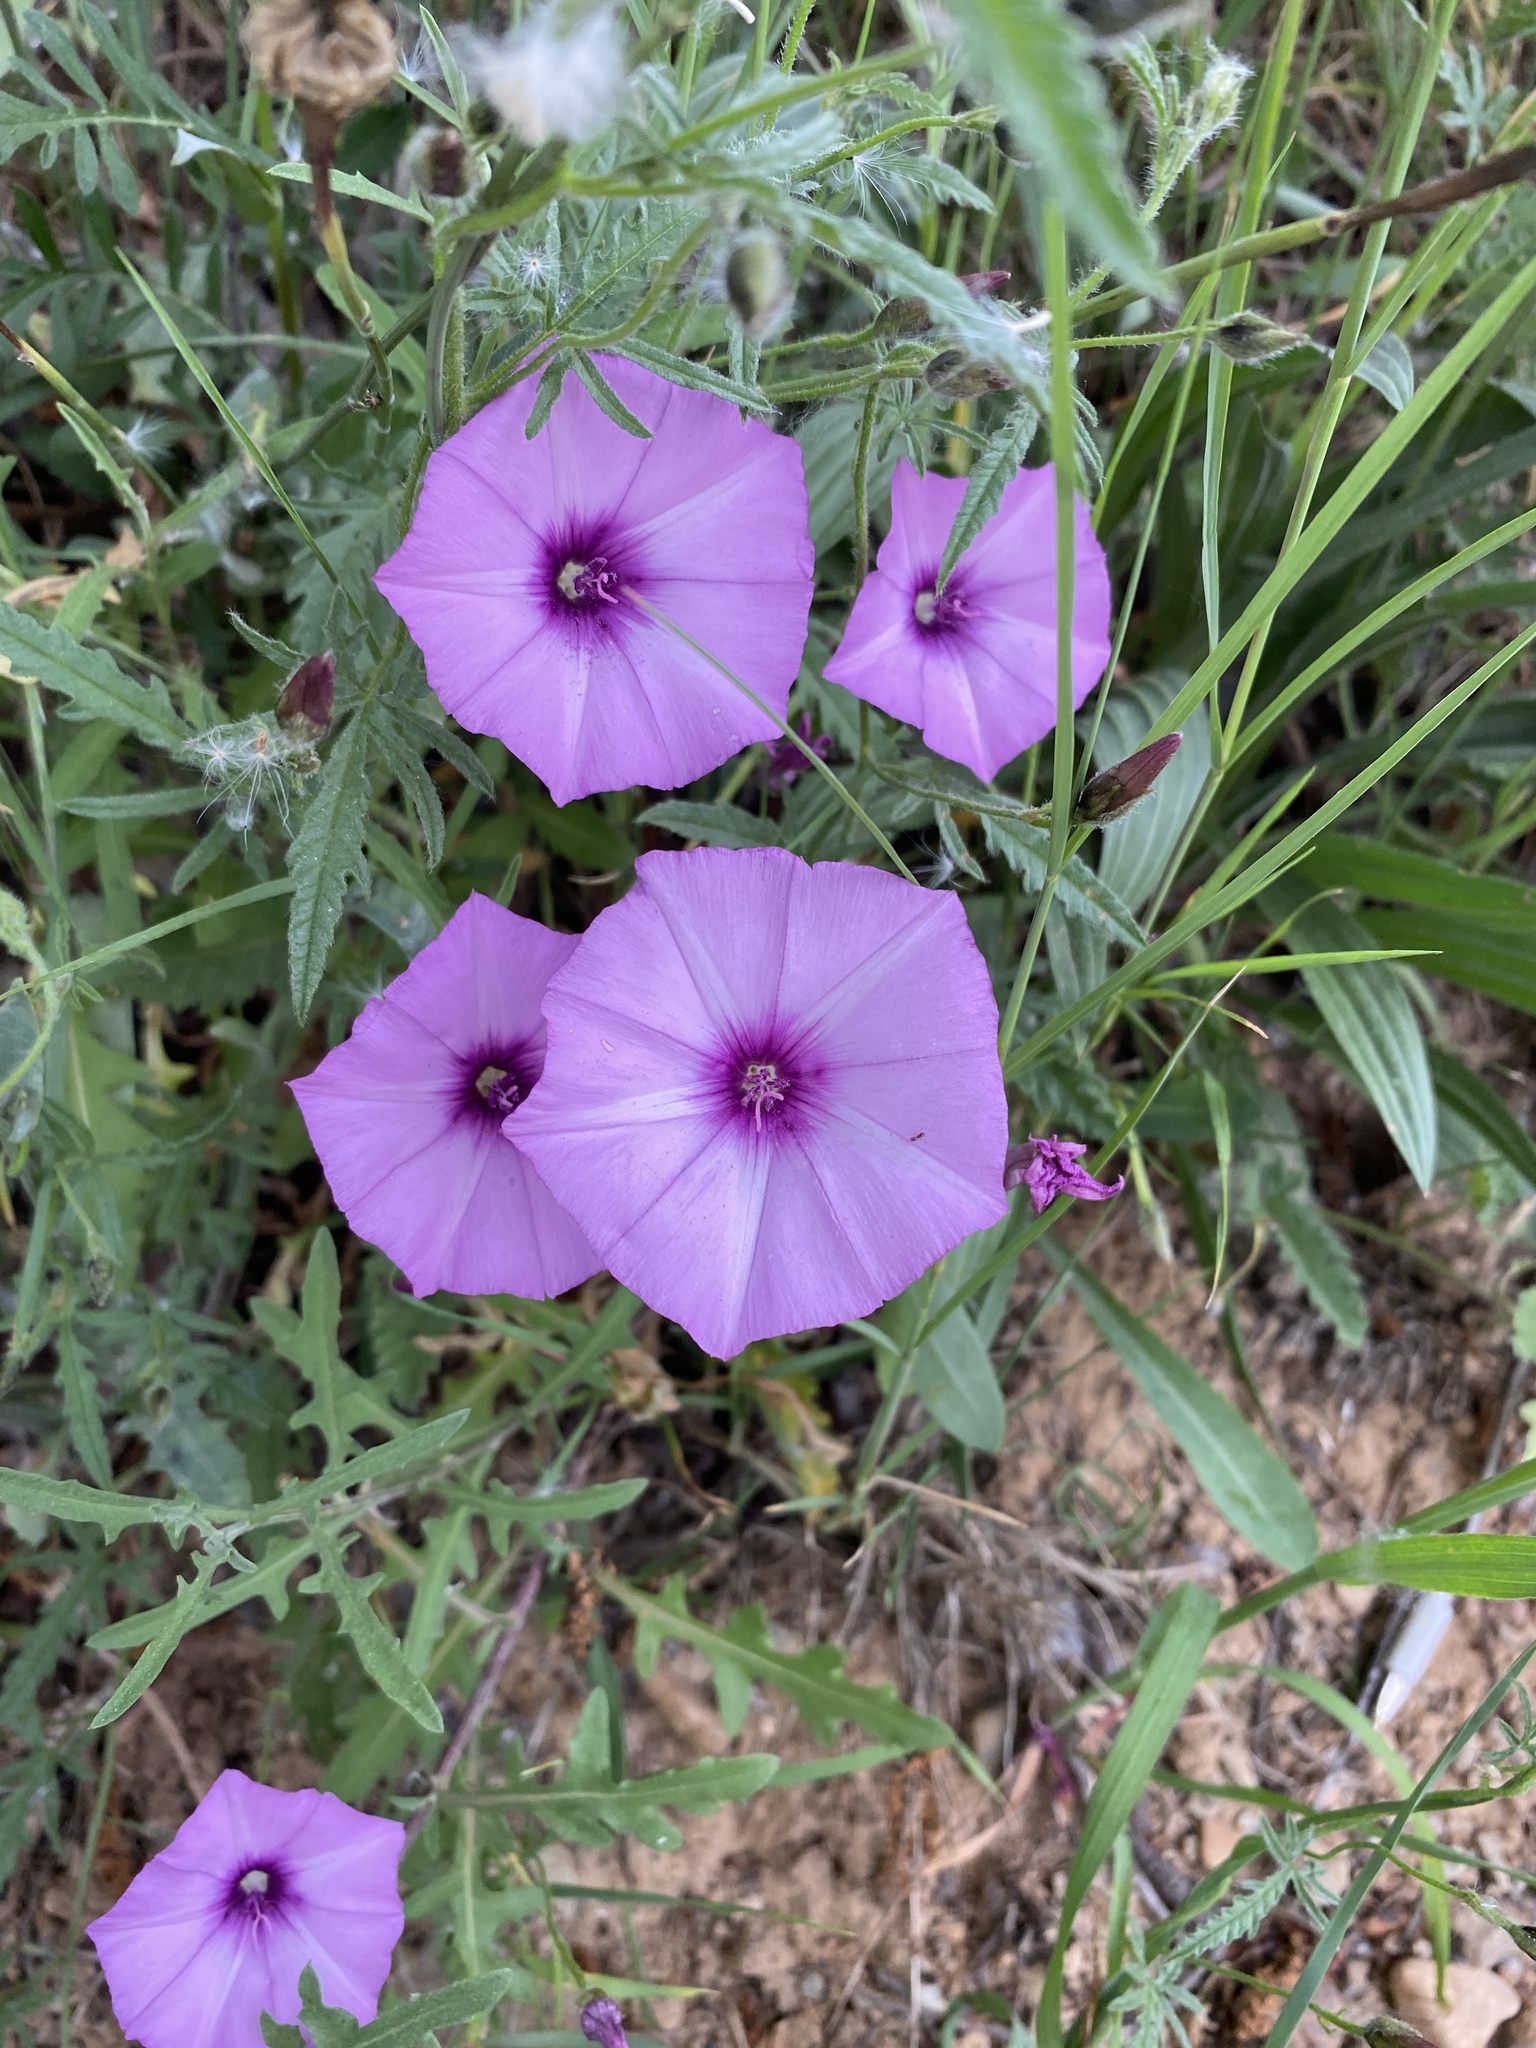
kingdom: Plantae
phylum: Tracheophyta
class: Magnoliopsida
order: Solanales
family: Convolvulaceae
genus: Convolvulus
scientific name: Convolvulus althaeoides
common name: Mallow bindweed
